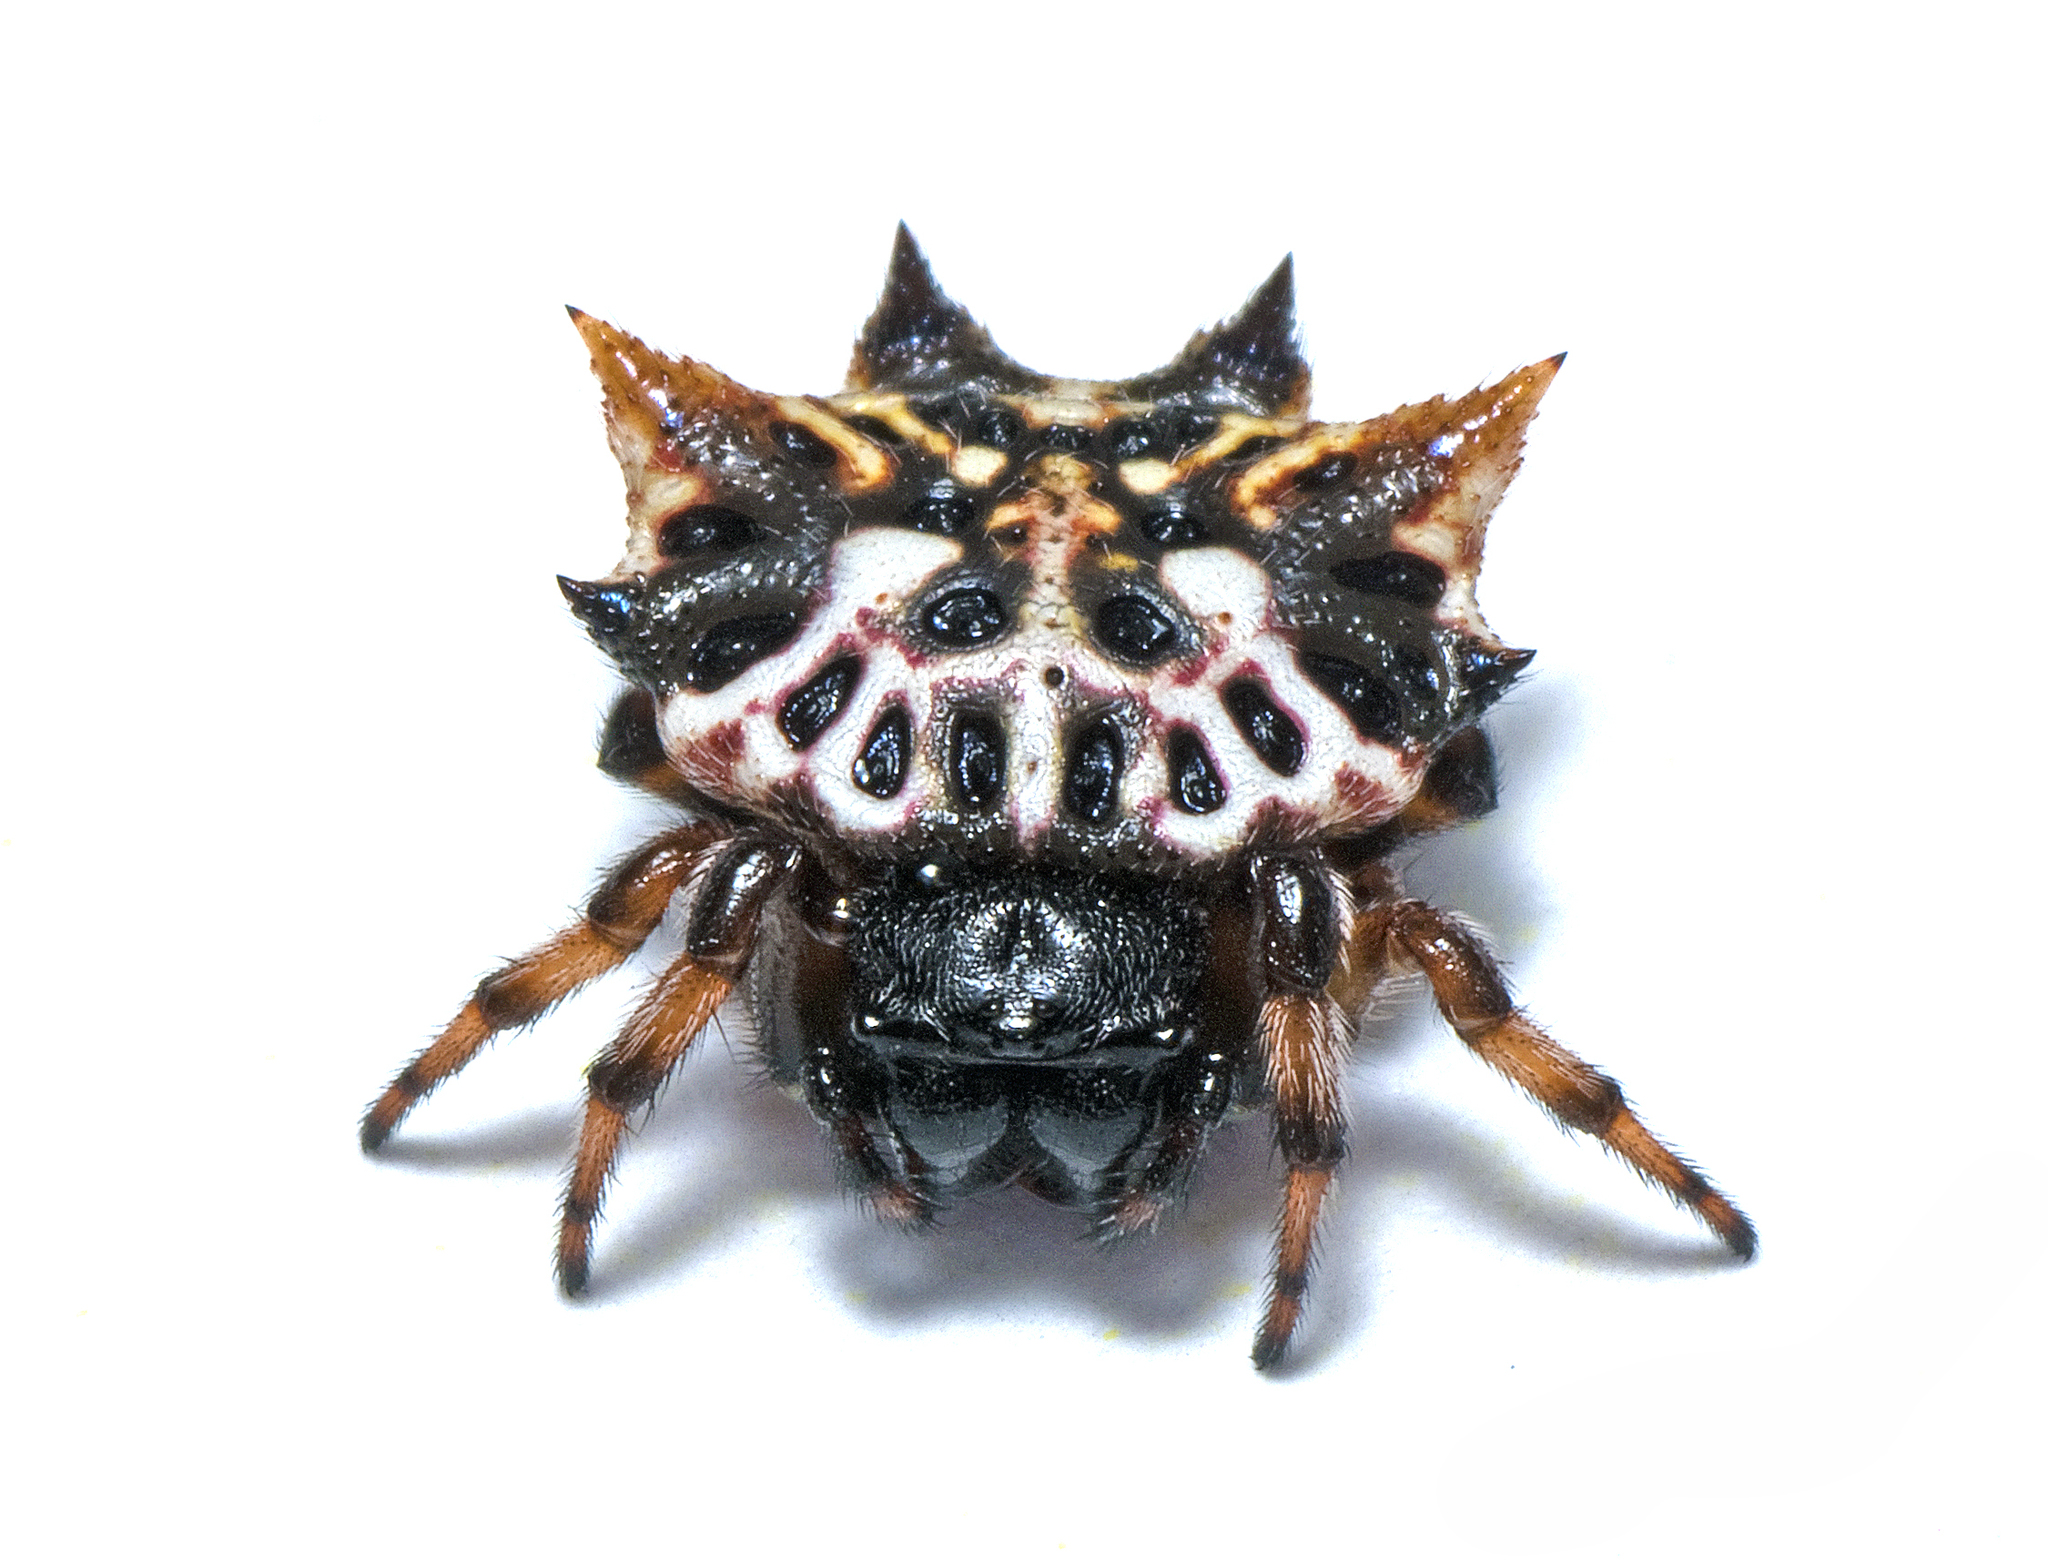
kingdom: Animalia
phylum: Arthropoda
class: Arachnida
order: Araneae
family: Araneidae
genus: Gasteracantha
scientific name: Gasteracantha sacerdotalis
